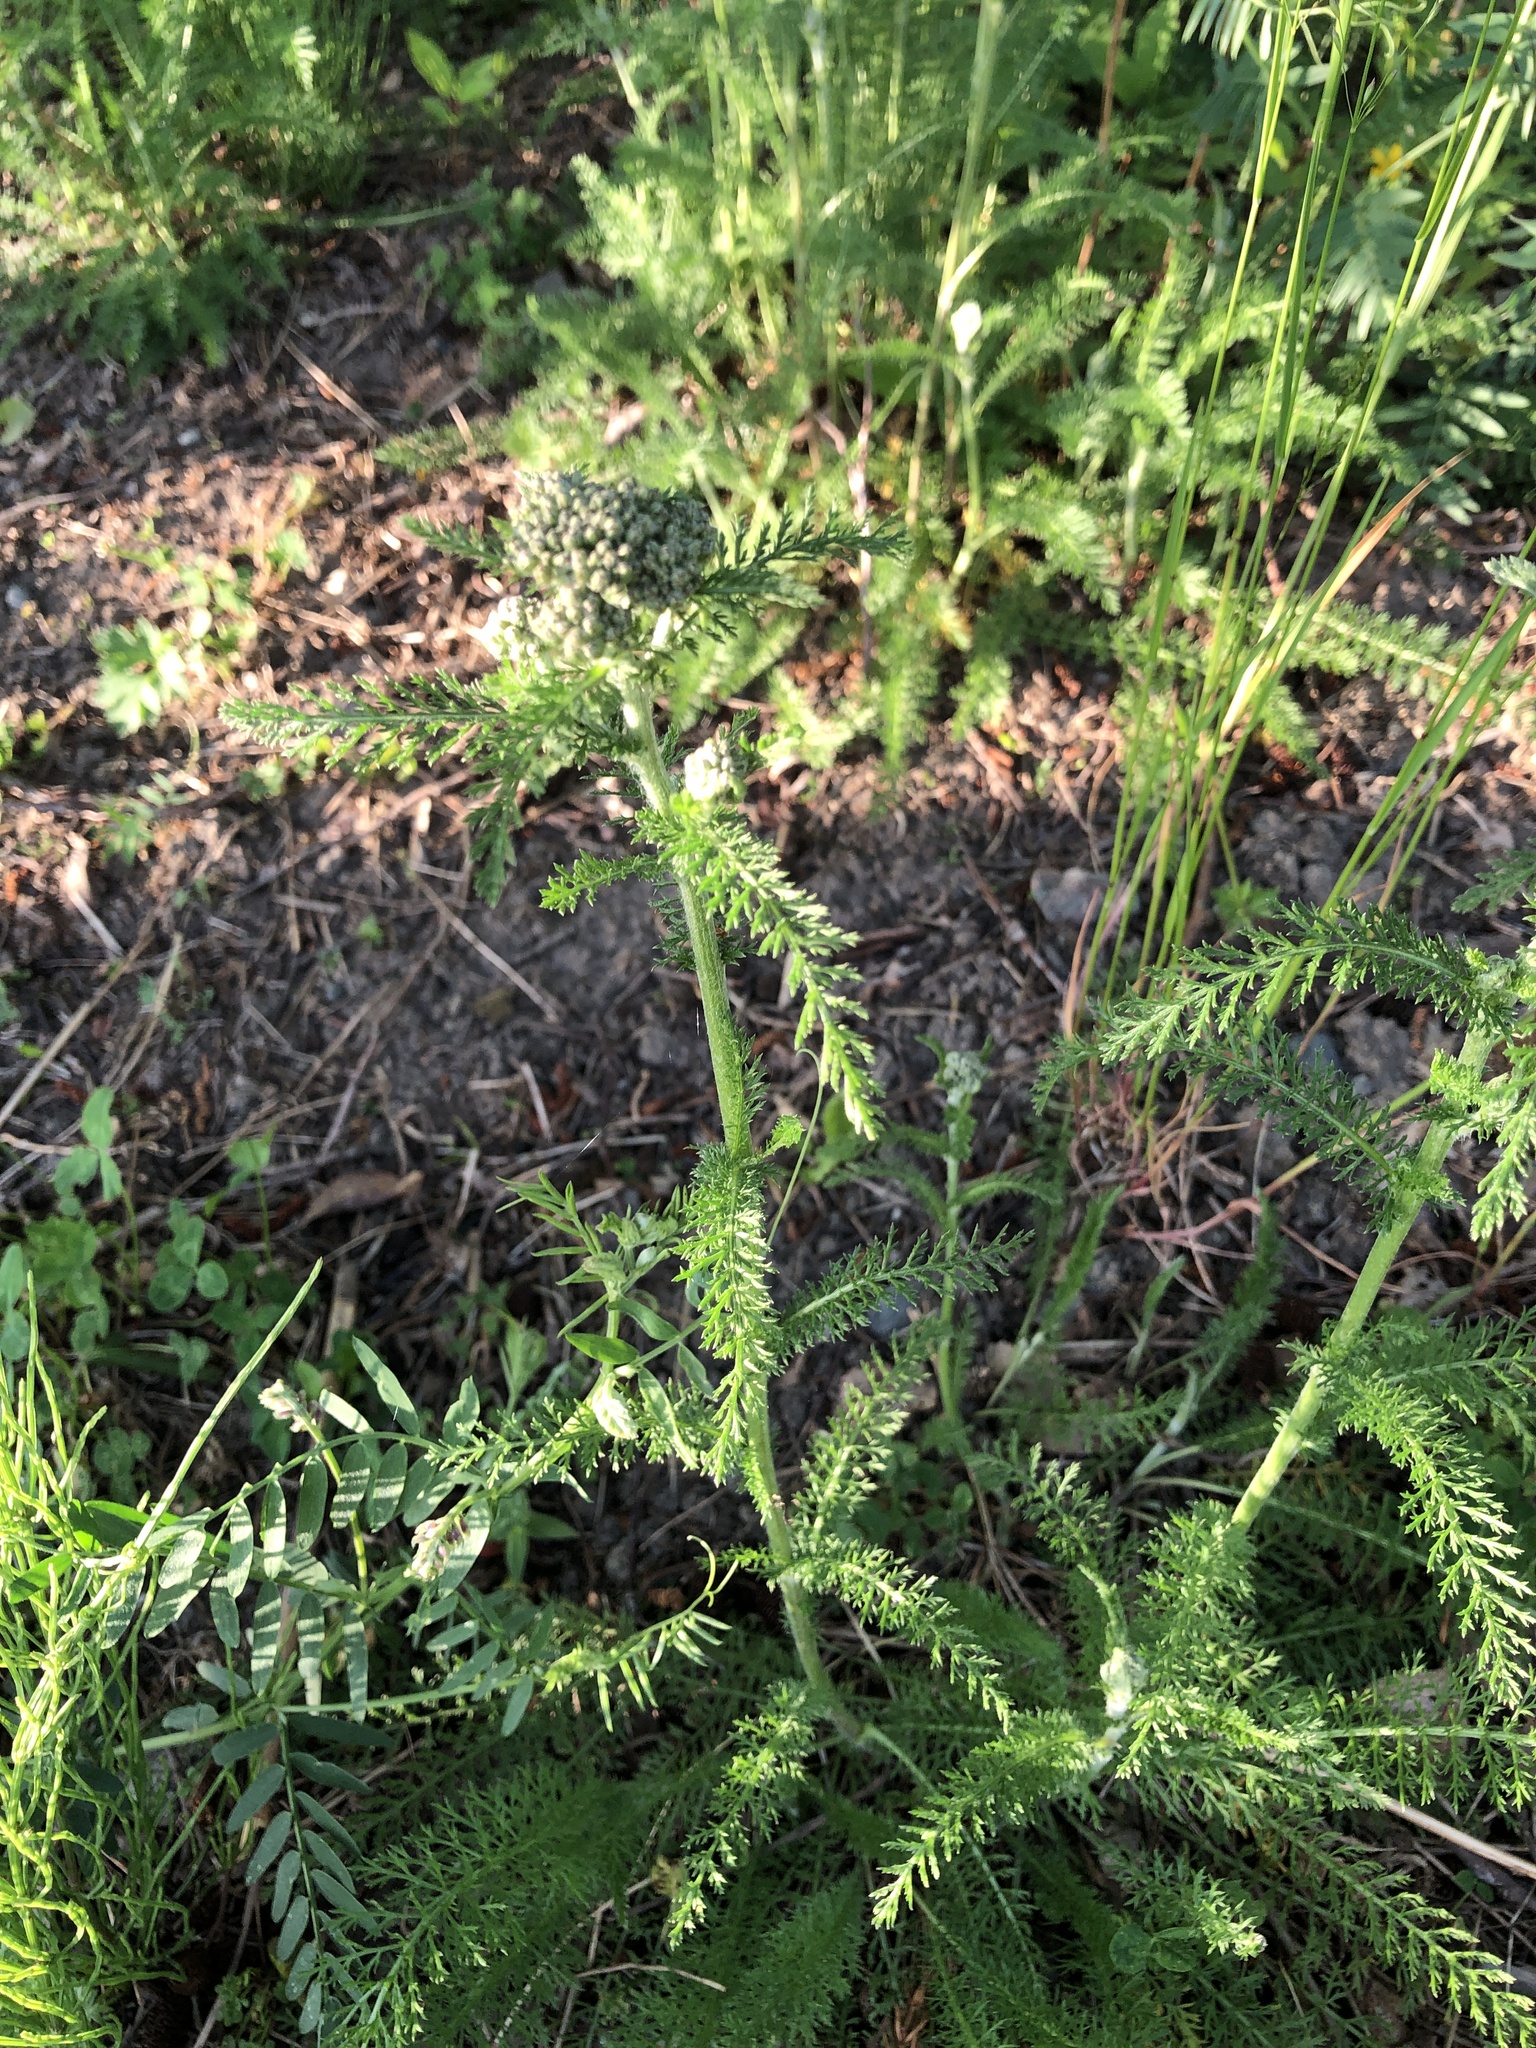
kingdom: Plantae
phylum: Tracheophyta
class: Magnoliopsida
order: Asterales
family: Asteraceae
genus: Achillea
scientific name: Achillea millefolium
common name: Yarrow
